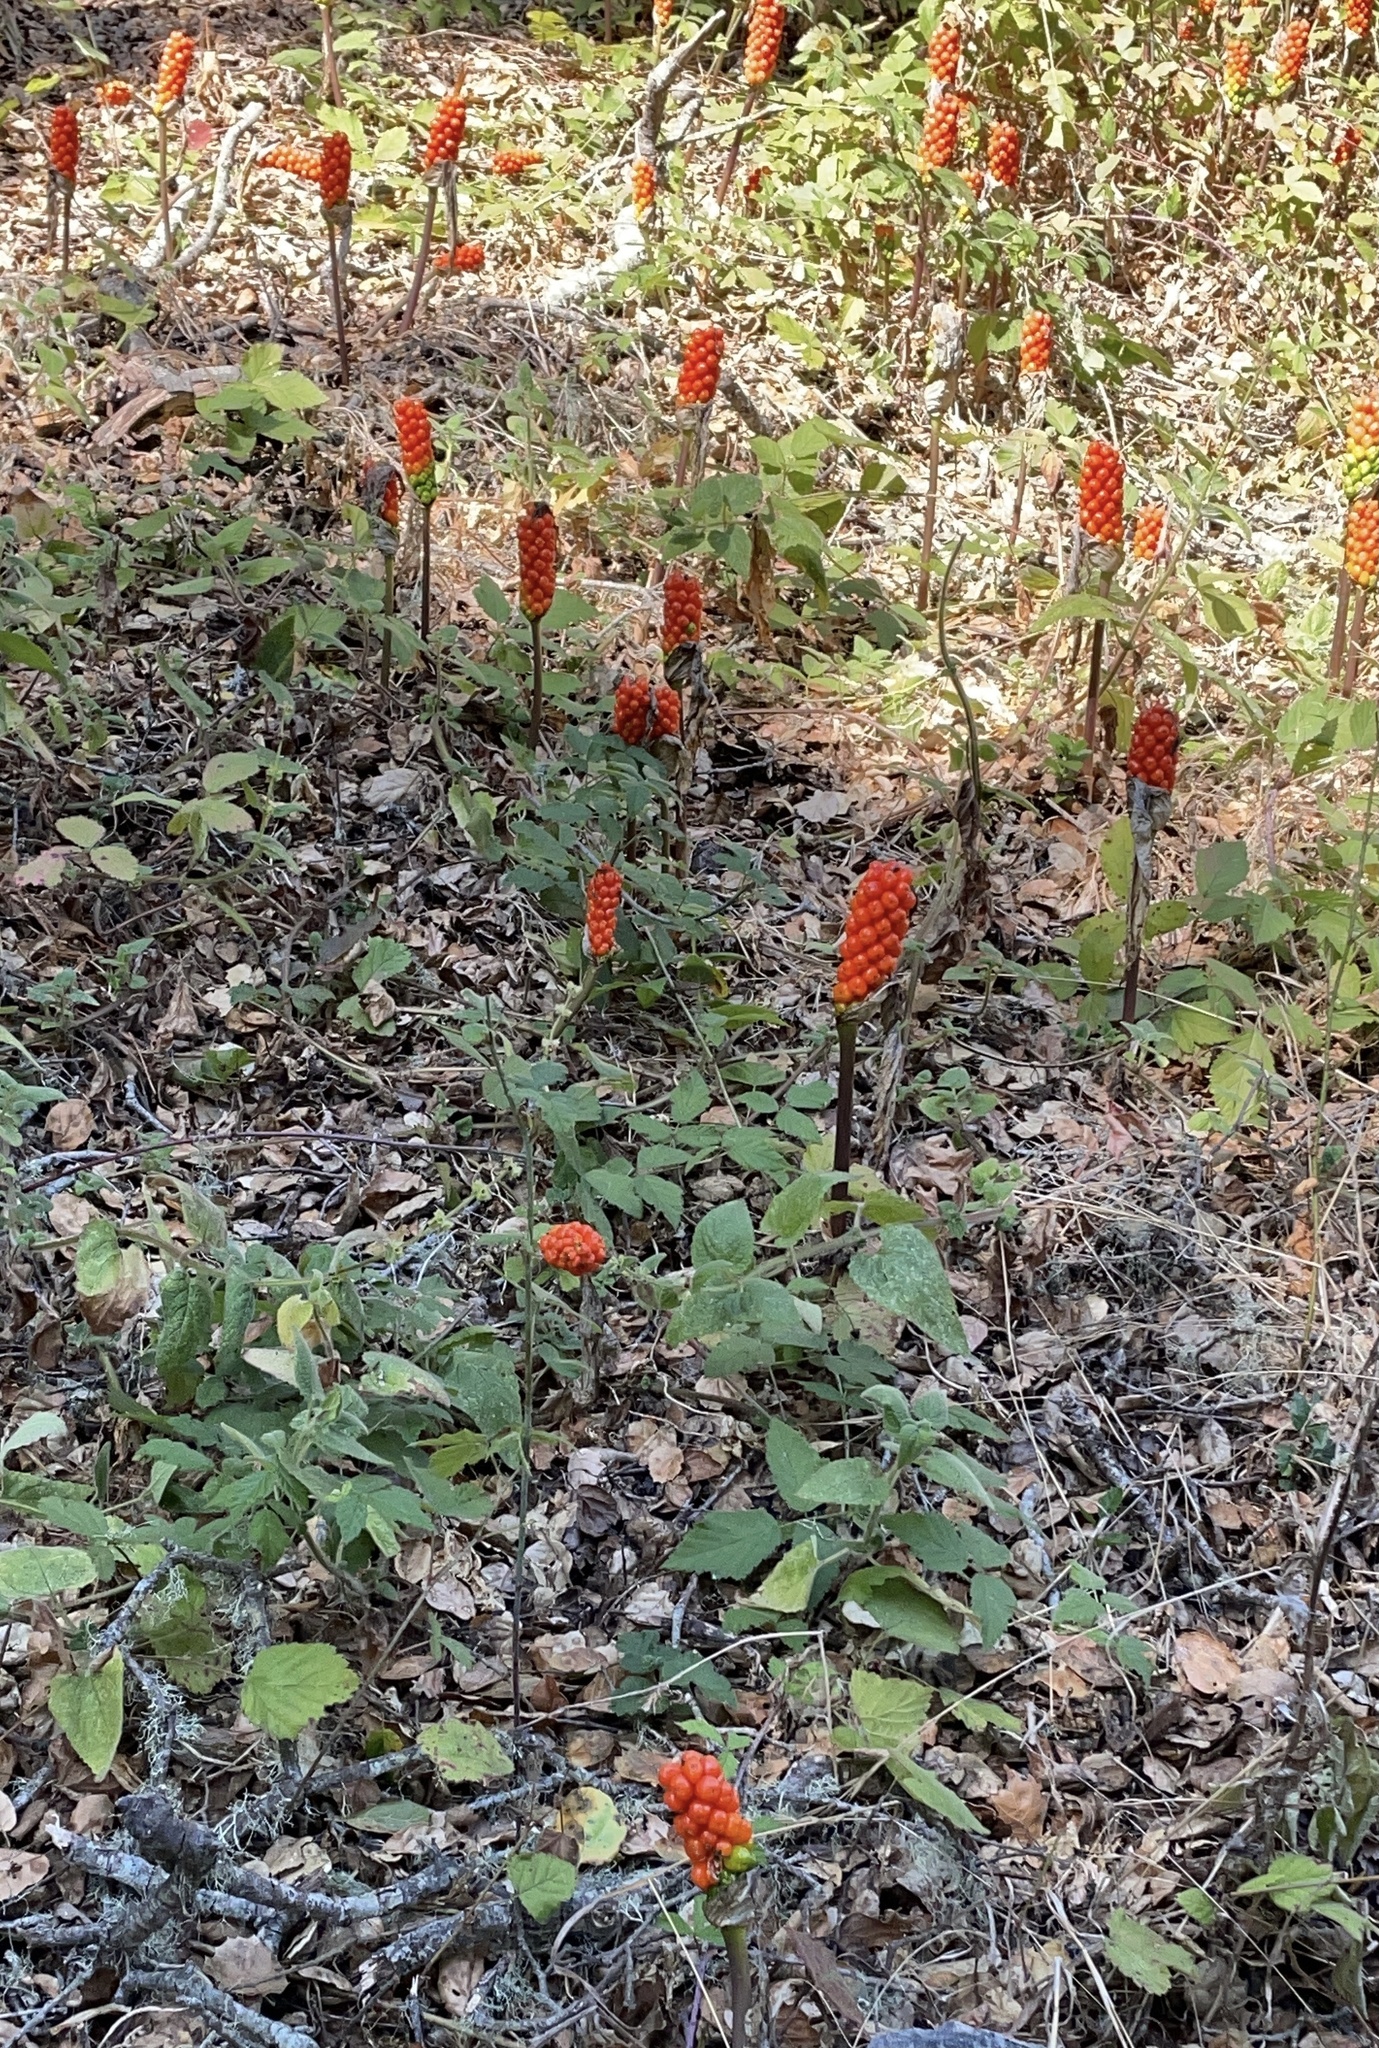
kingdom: Plantae
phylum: Tracheophyta
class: Liliopsida
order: Alismatales
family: Araceae
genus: Arum
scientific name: Arum italicum
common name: Italian lords-and-ladies
